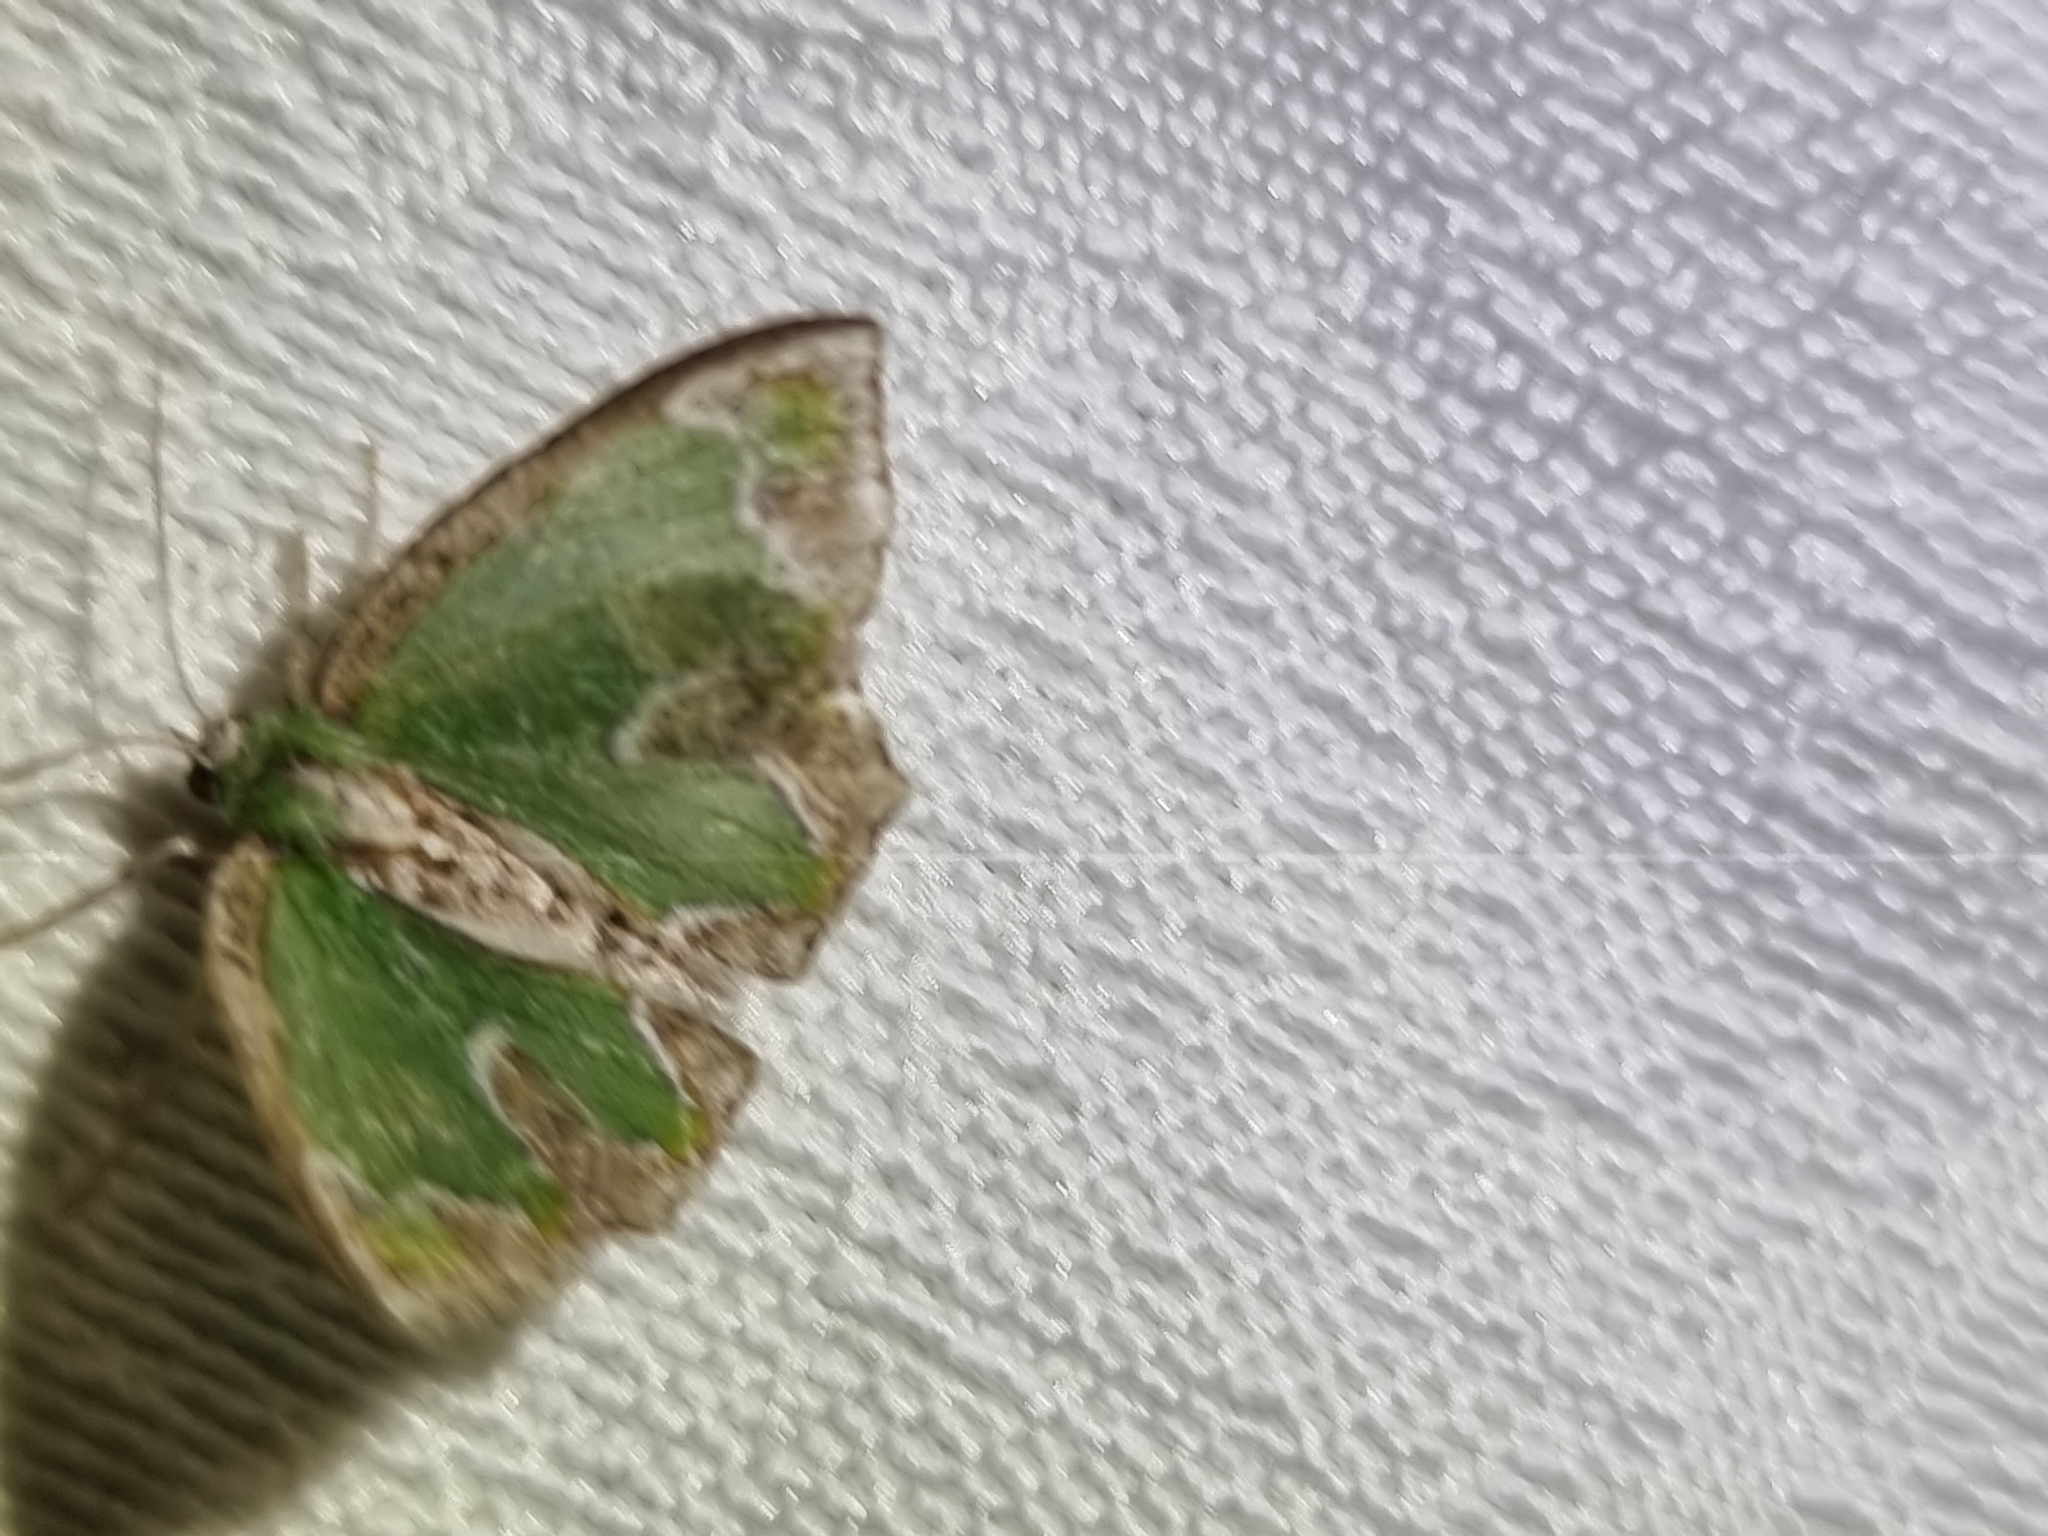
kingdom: Animalia
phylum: Arthropoda
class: Insecta
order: Lepidoptera
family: Geometridae
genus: Eucyclodes
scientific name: Eucyclodes insperata
